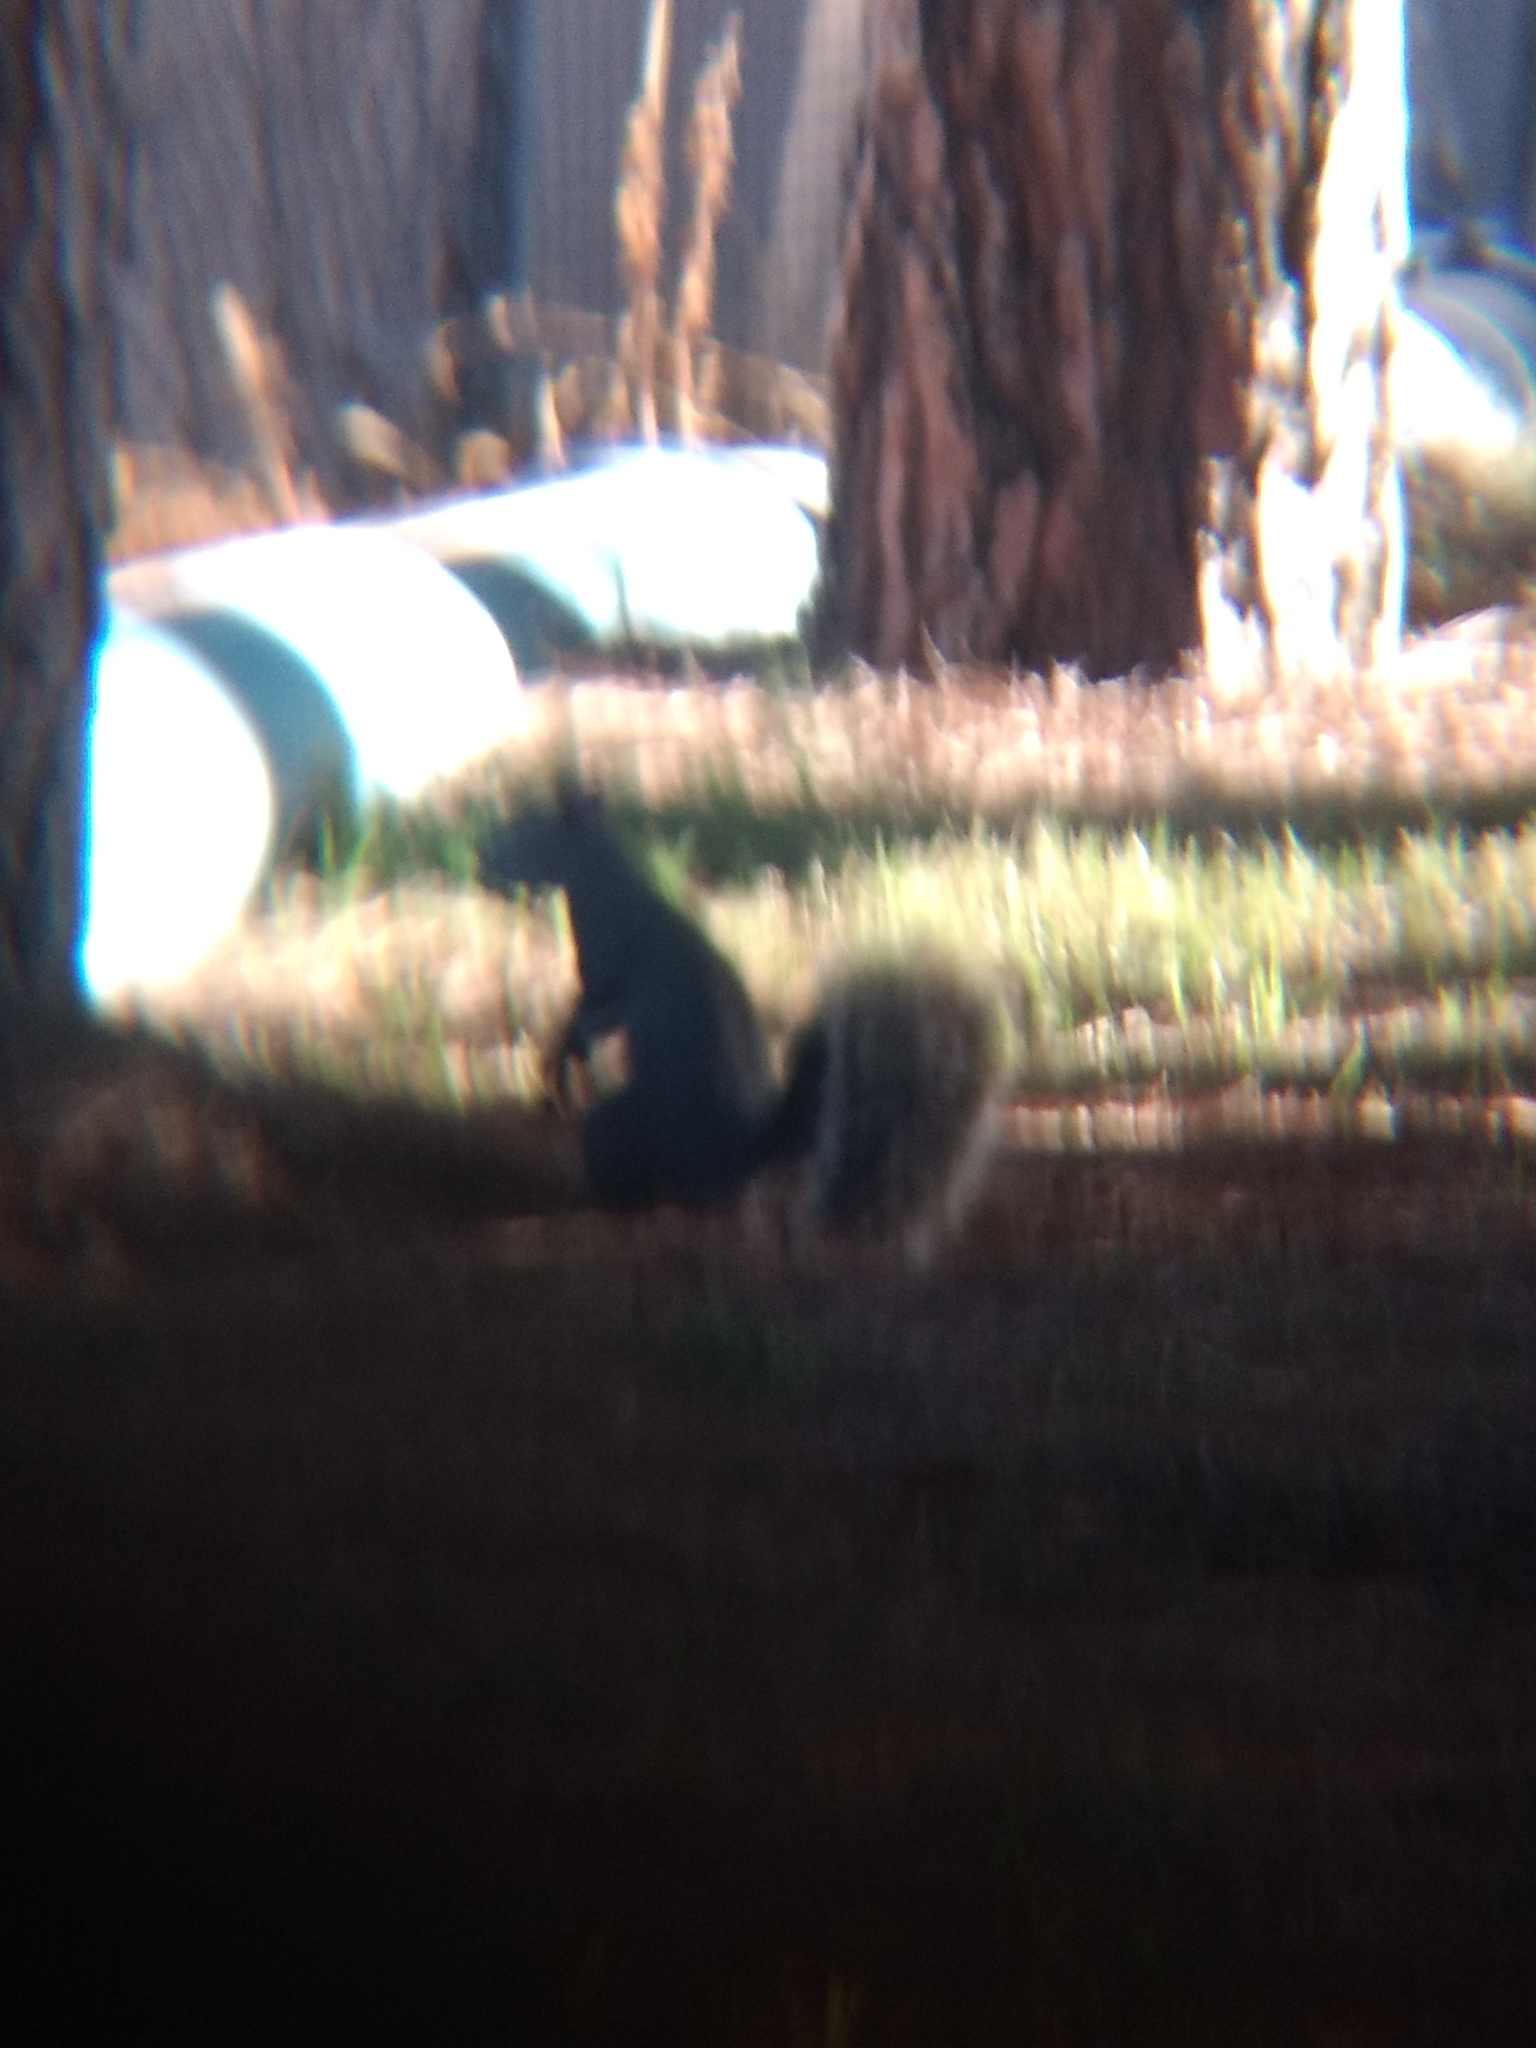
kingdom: Animalia
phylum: Chordata
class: Mammalia
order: Rodentia
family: Sciuridae
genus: Sciurus
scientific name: Sciurus griseus
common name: Western gray squirrel
